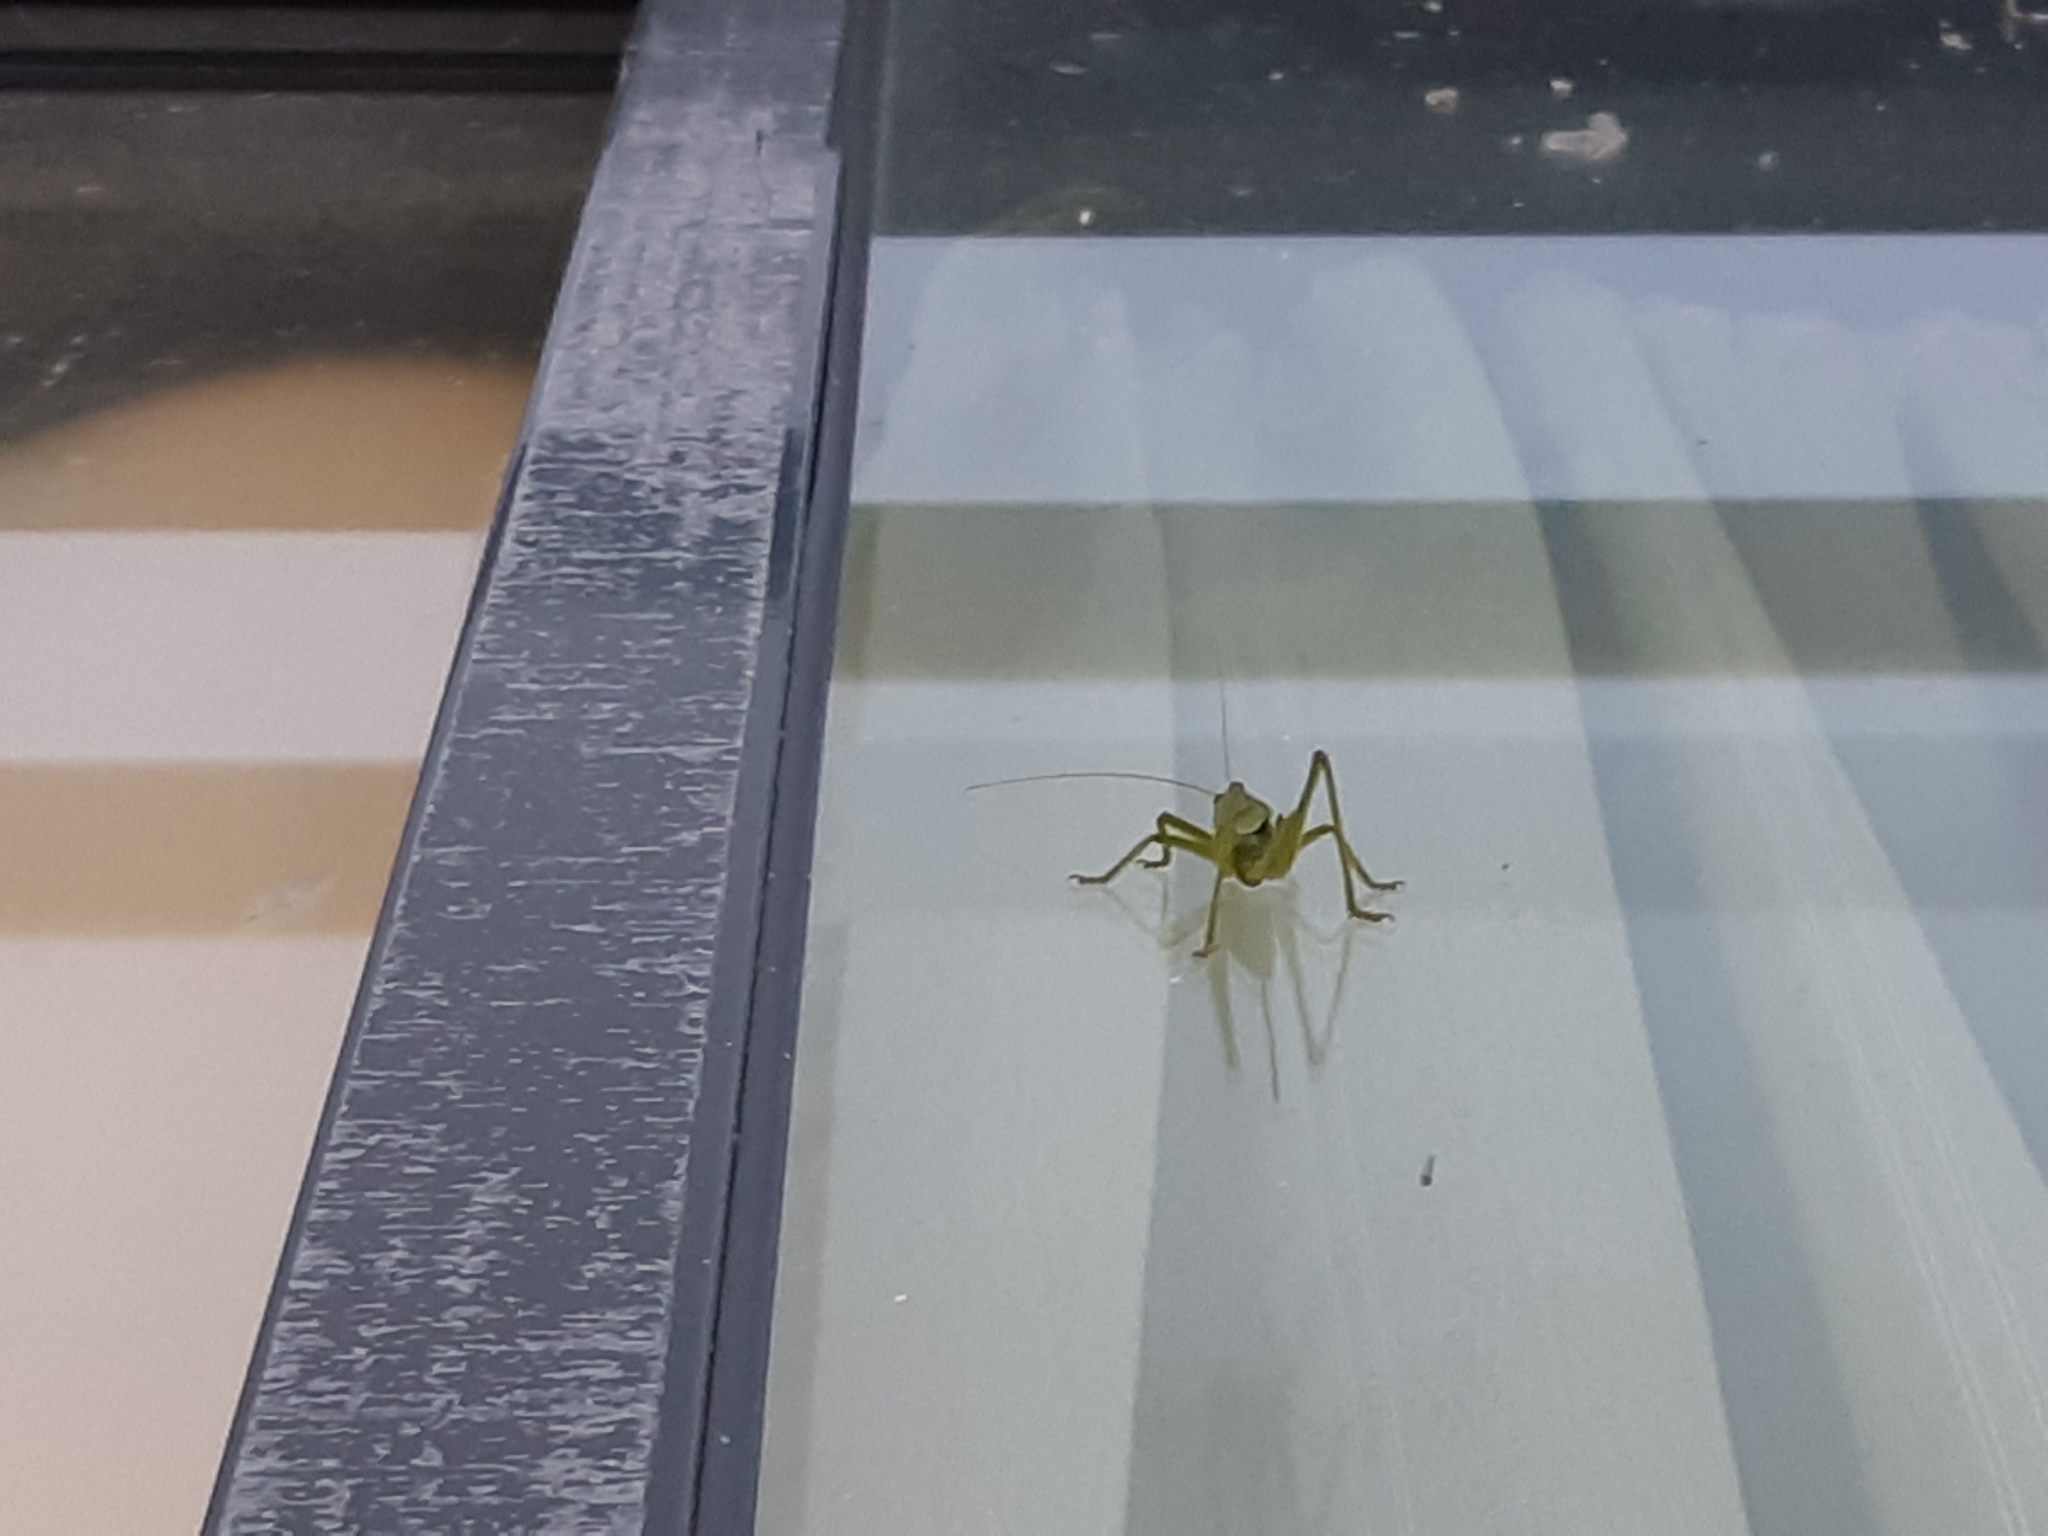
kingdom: Animalia
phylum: Arthropoda
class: Insecta
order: Orthoptera
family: Tettigoniidae
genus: Tettigonia
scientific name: Tettigonia
